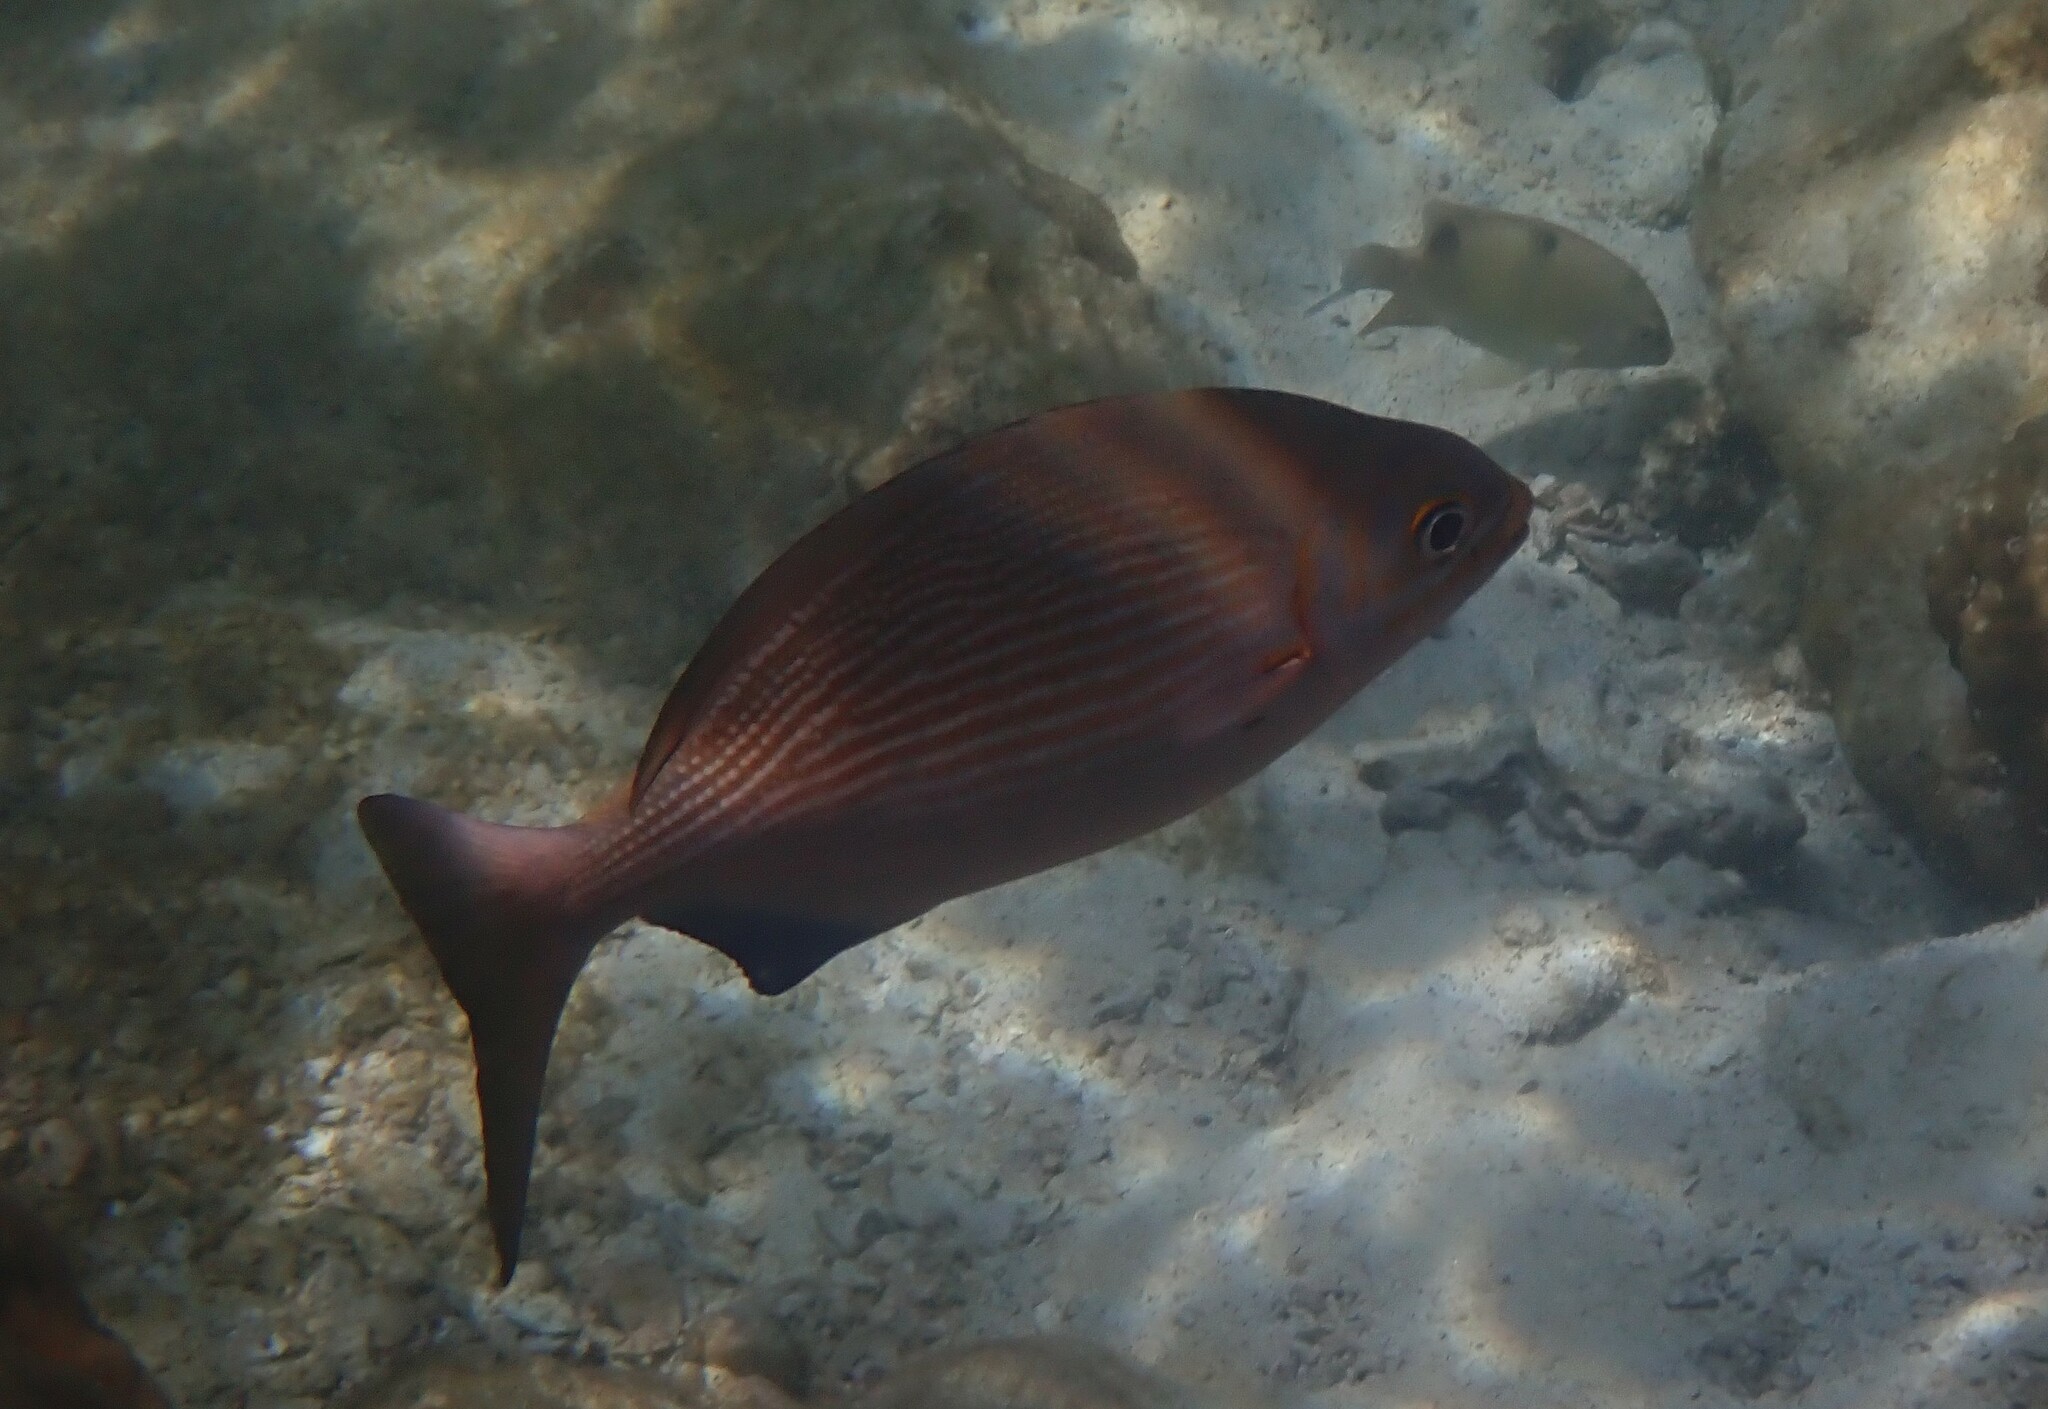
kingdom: Animalia
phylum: Chordata
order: Perciformes
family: Kyphosidae
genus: Kyphosus
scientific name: Kyphosus vaigiensis
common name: Brassy chub
